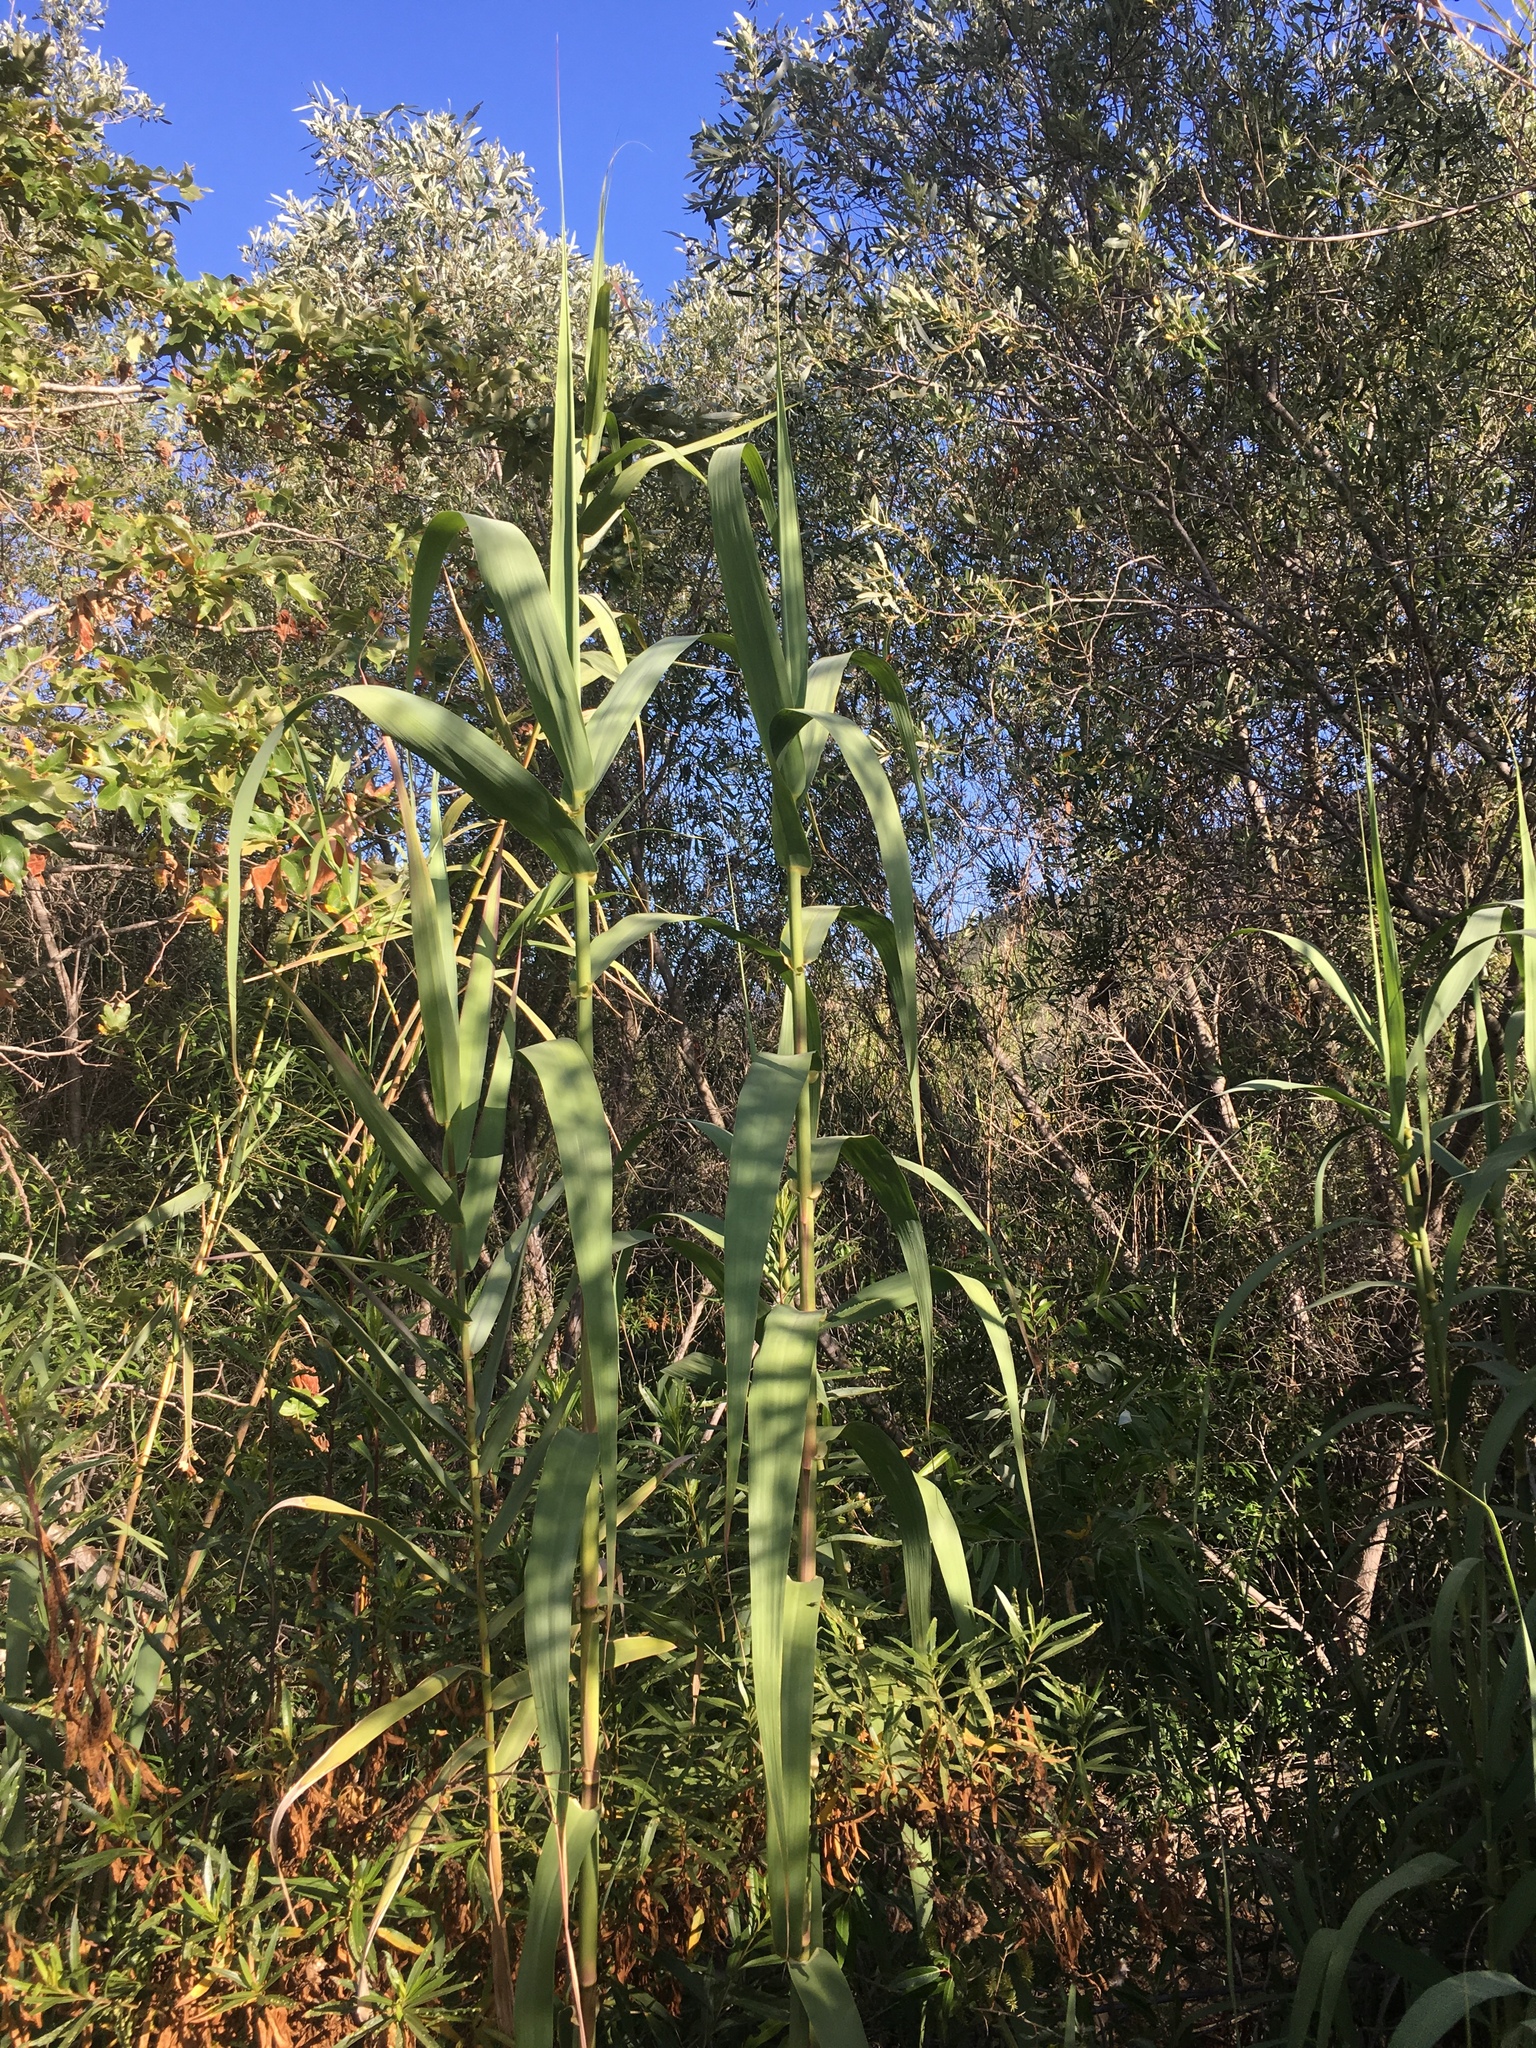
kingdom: Plantae
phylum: Tracheophyta
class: Liliopsida
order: Poales
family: Poaceae
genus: Arundo
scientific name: Arundo donax
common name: Giant reed
